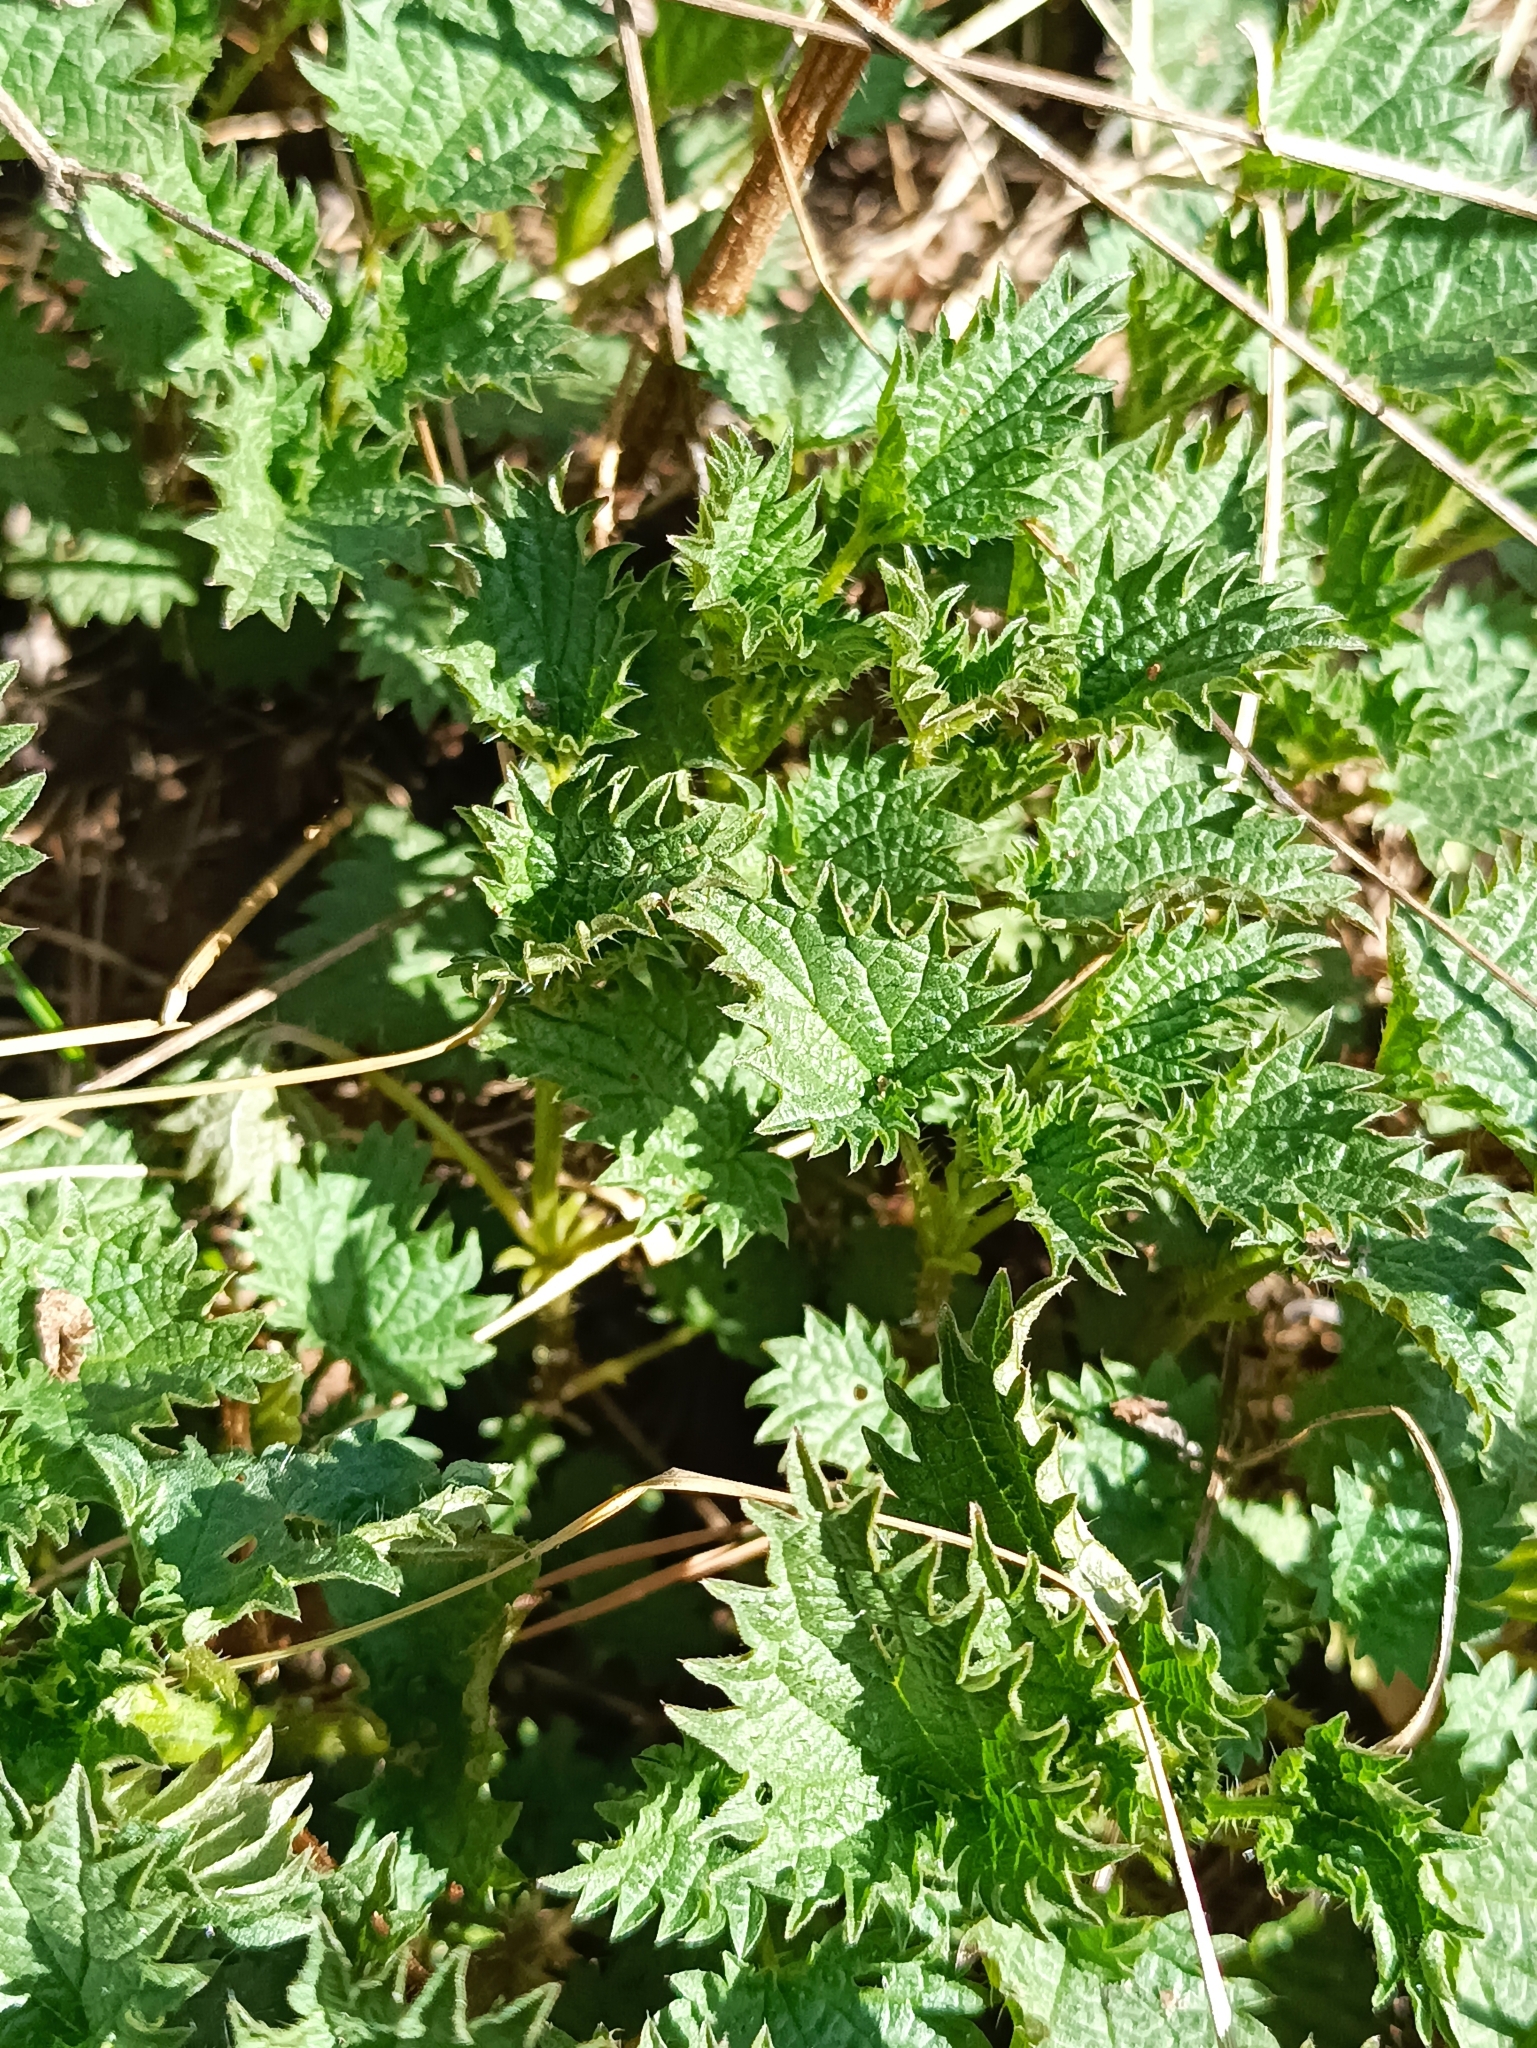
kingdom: Plantae
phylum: Tracheophyta
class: Magnoliopsida
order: Rosales
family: Urticaceae
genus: Urtica
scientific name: Urtica dioica
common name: Common nettle
